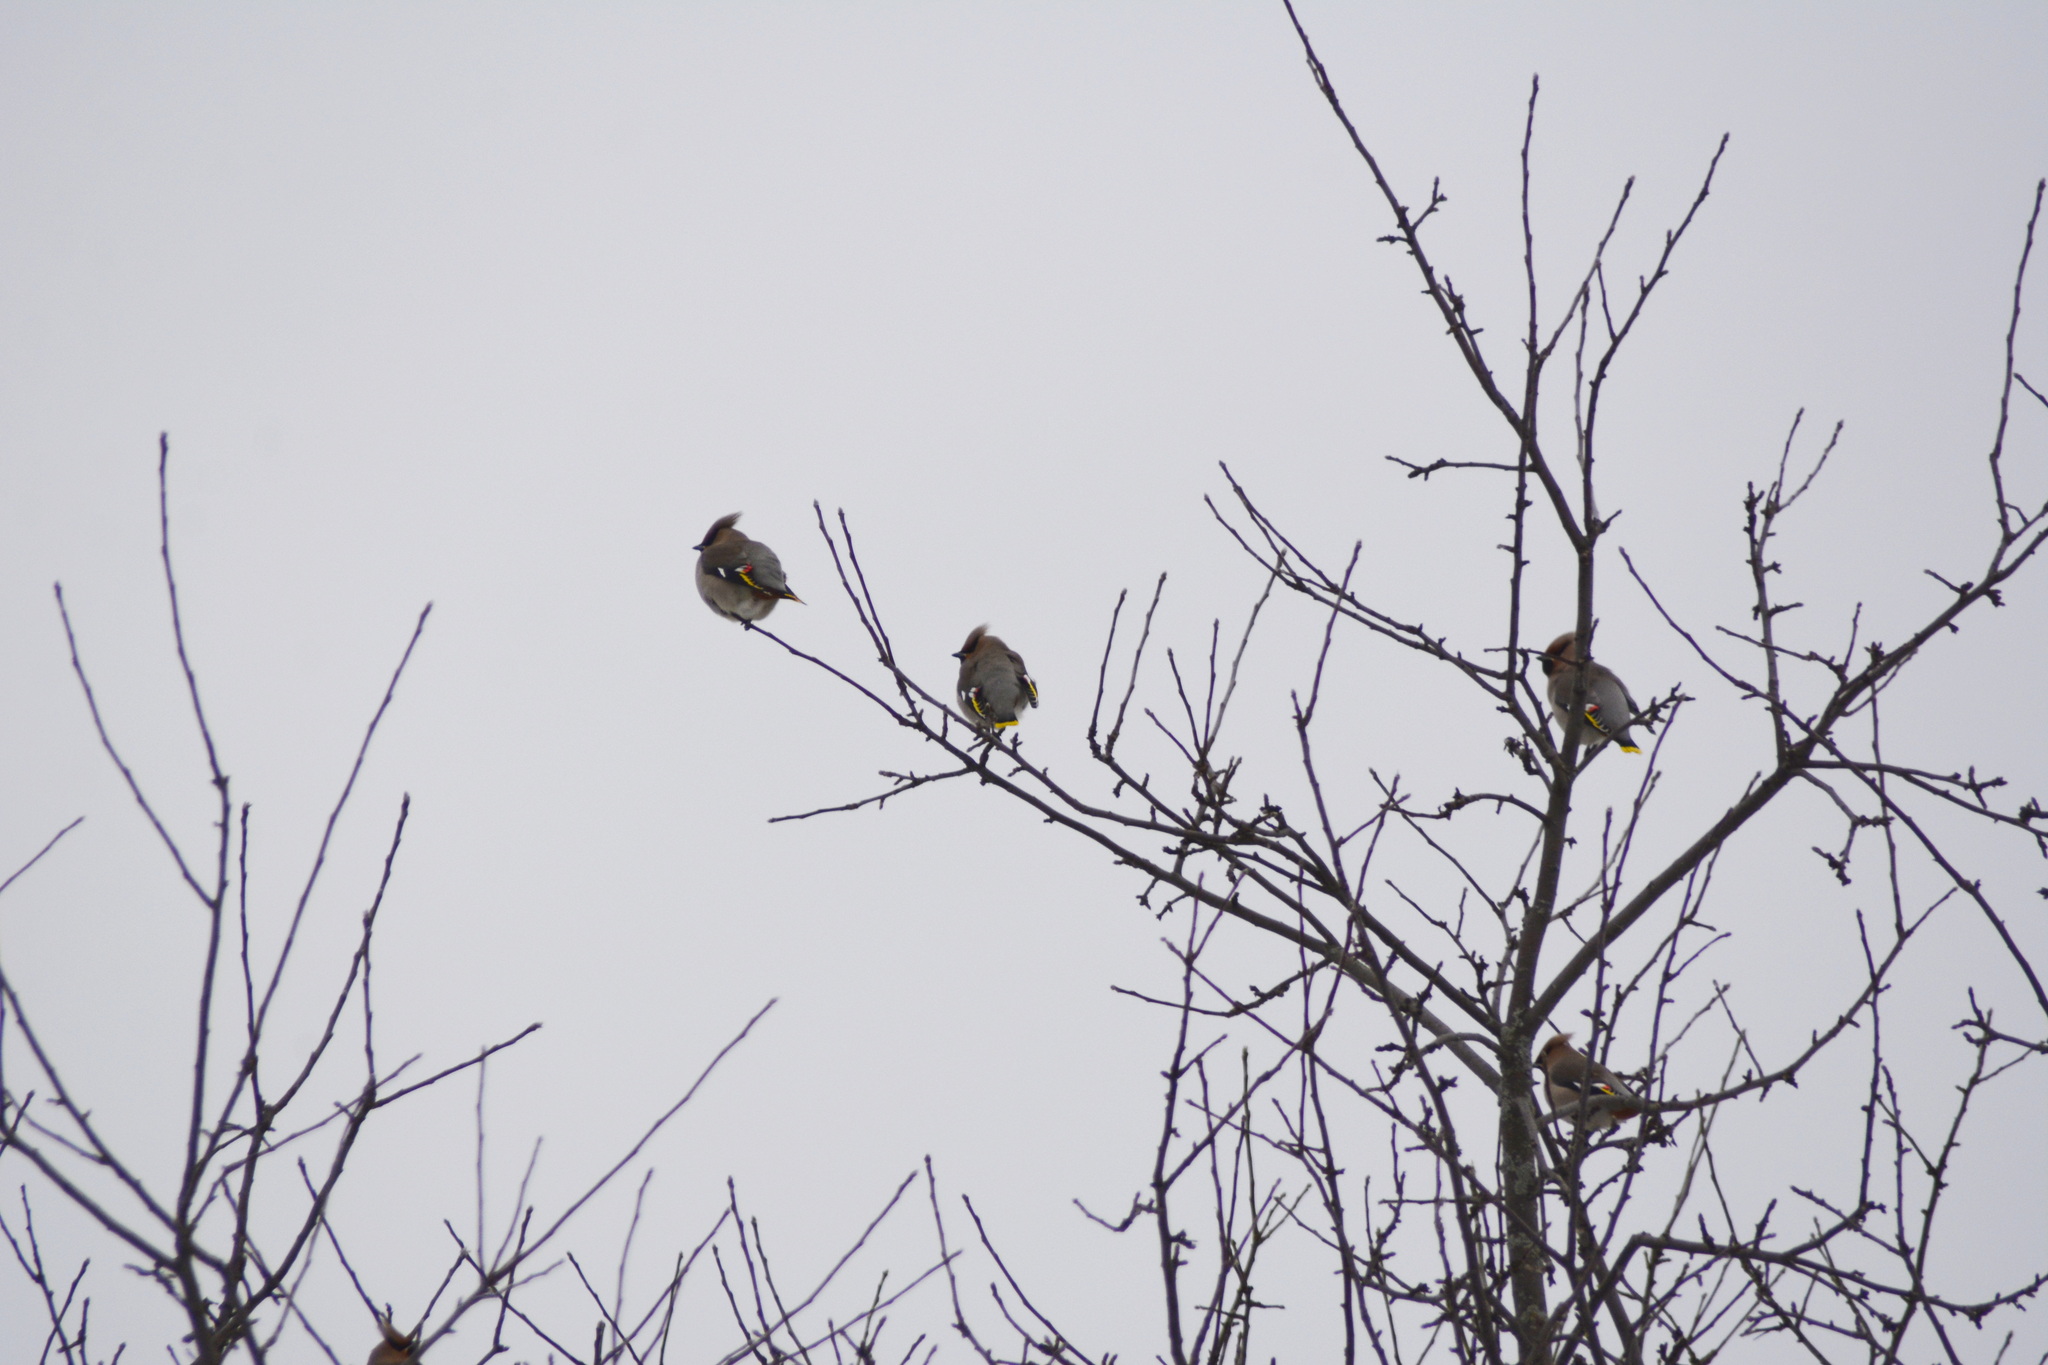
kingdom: Animalia
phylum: Chordata
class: Aves
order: Passeriformes
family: Bombycillidae
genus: Bombycilla
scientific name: Bombycilla garrulus
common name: Bohemian waxwing
